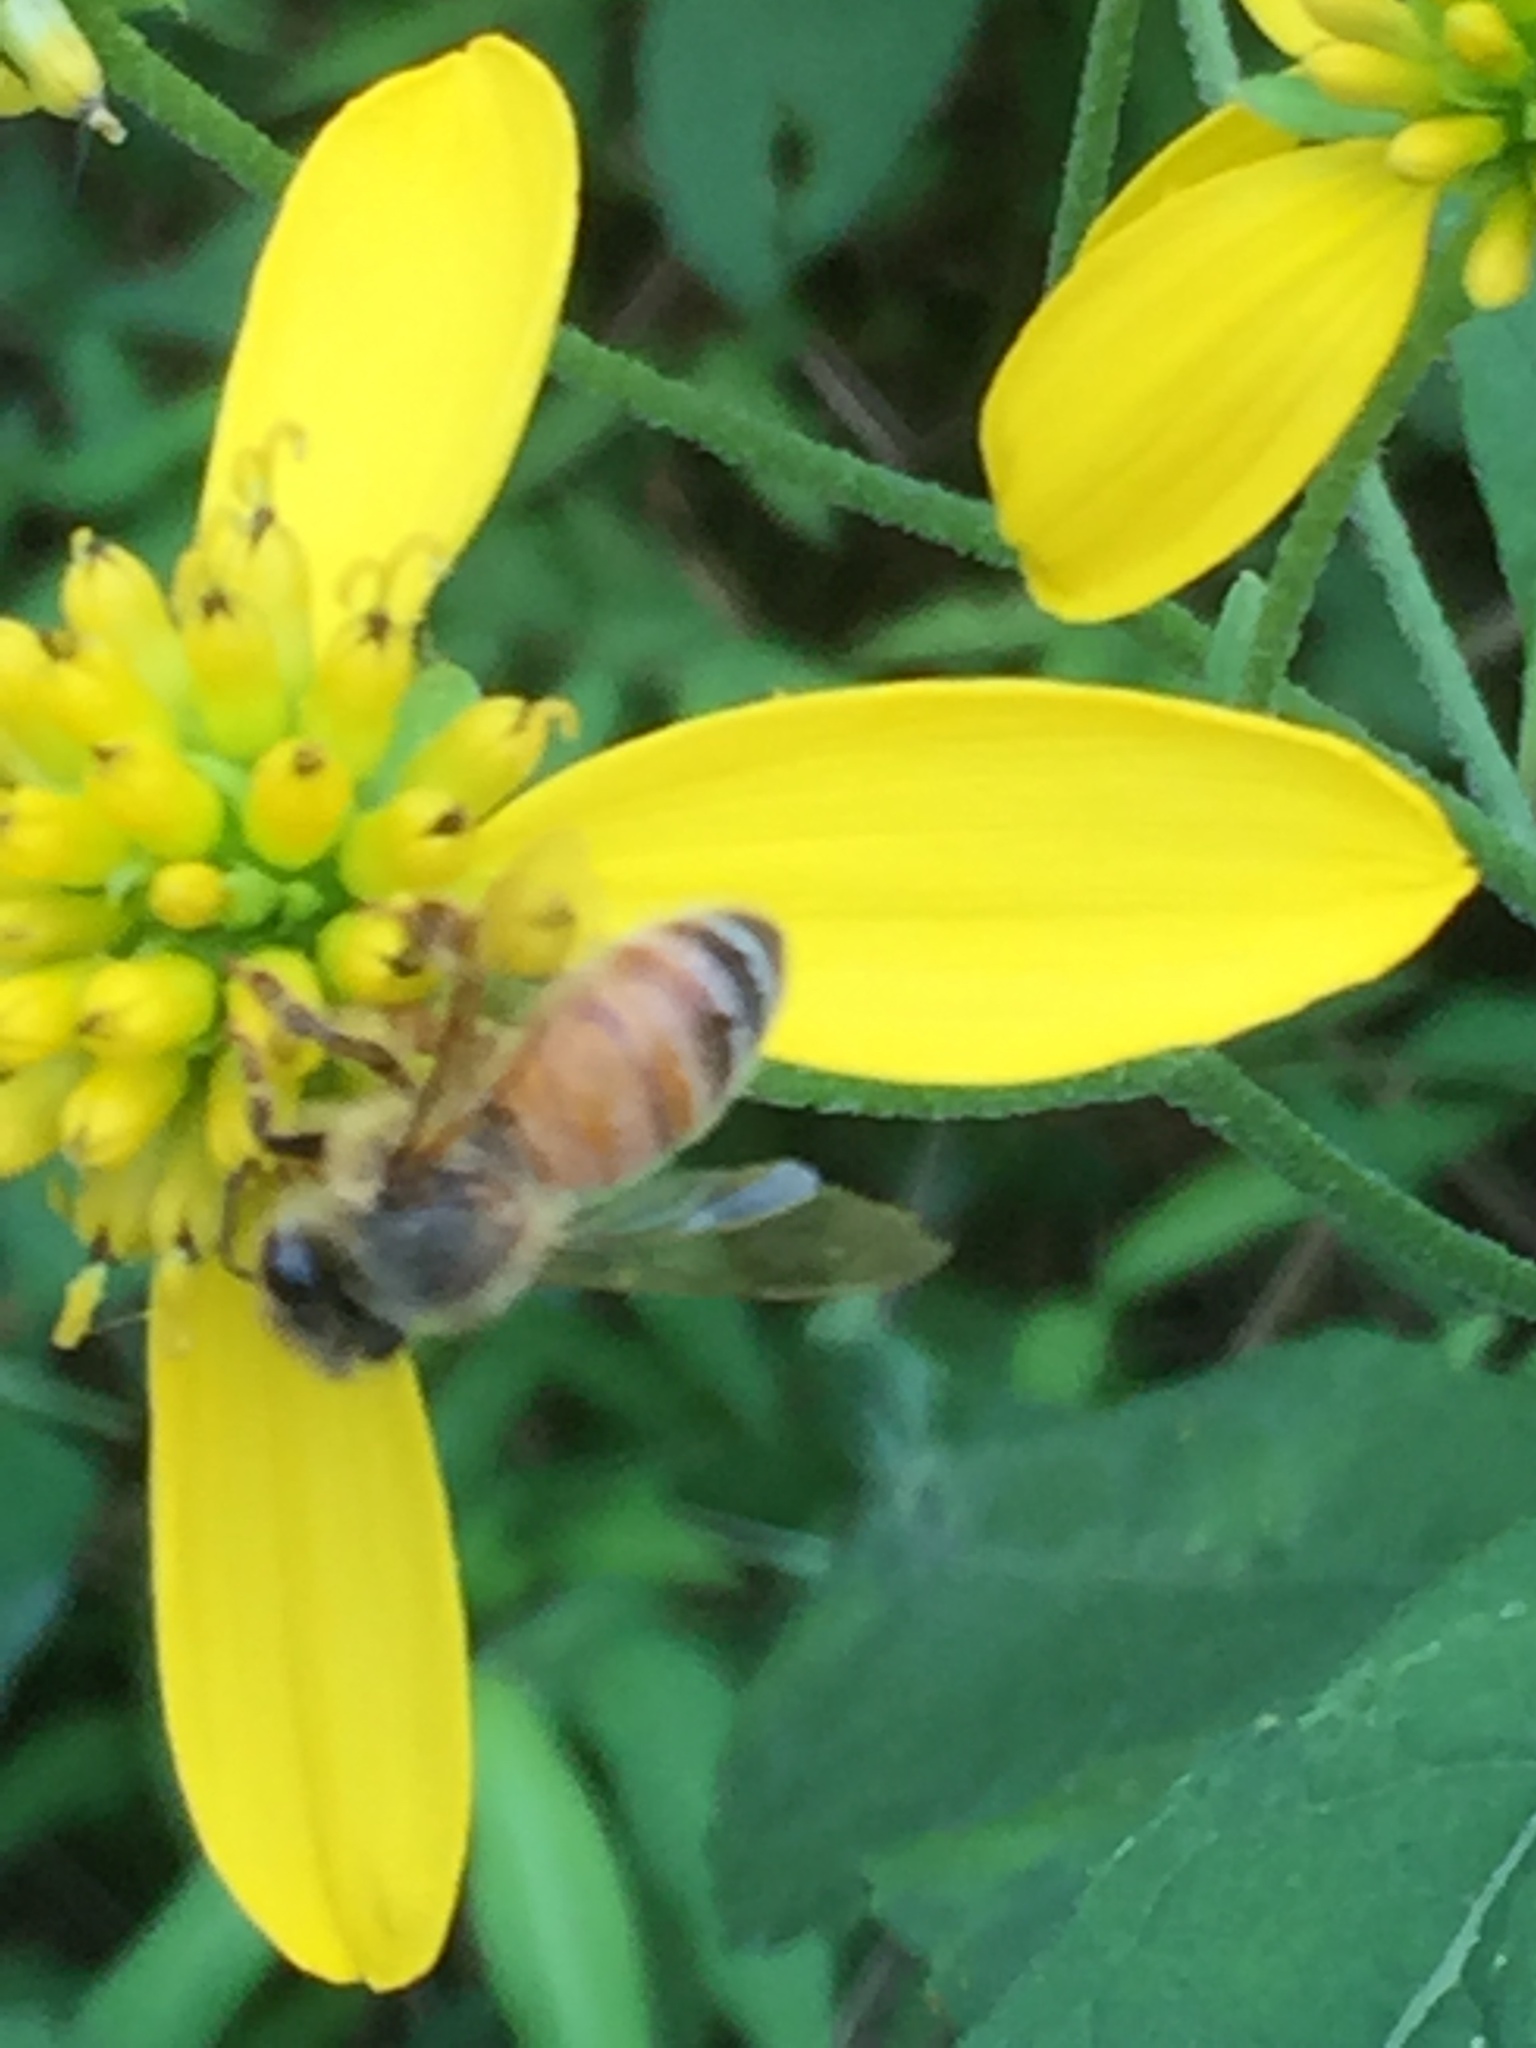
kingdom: Animalia
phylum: Arthropoda
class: Insecta
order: Hymenoptera
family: Apidae
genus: Apis
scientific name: Apis mellifera
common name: Honey bee
